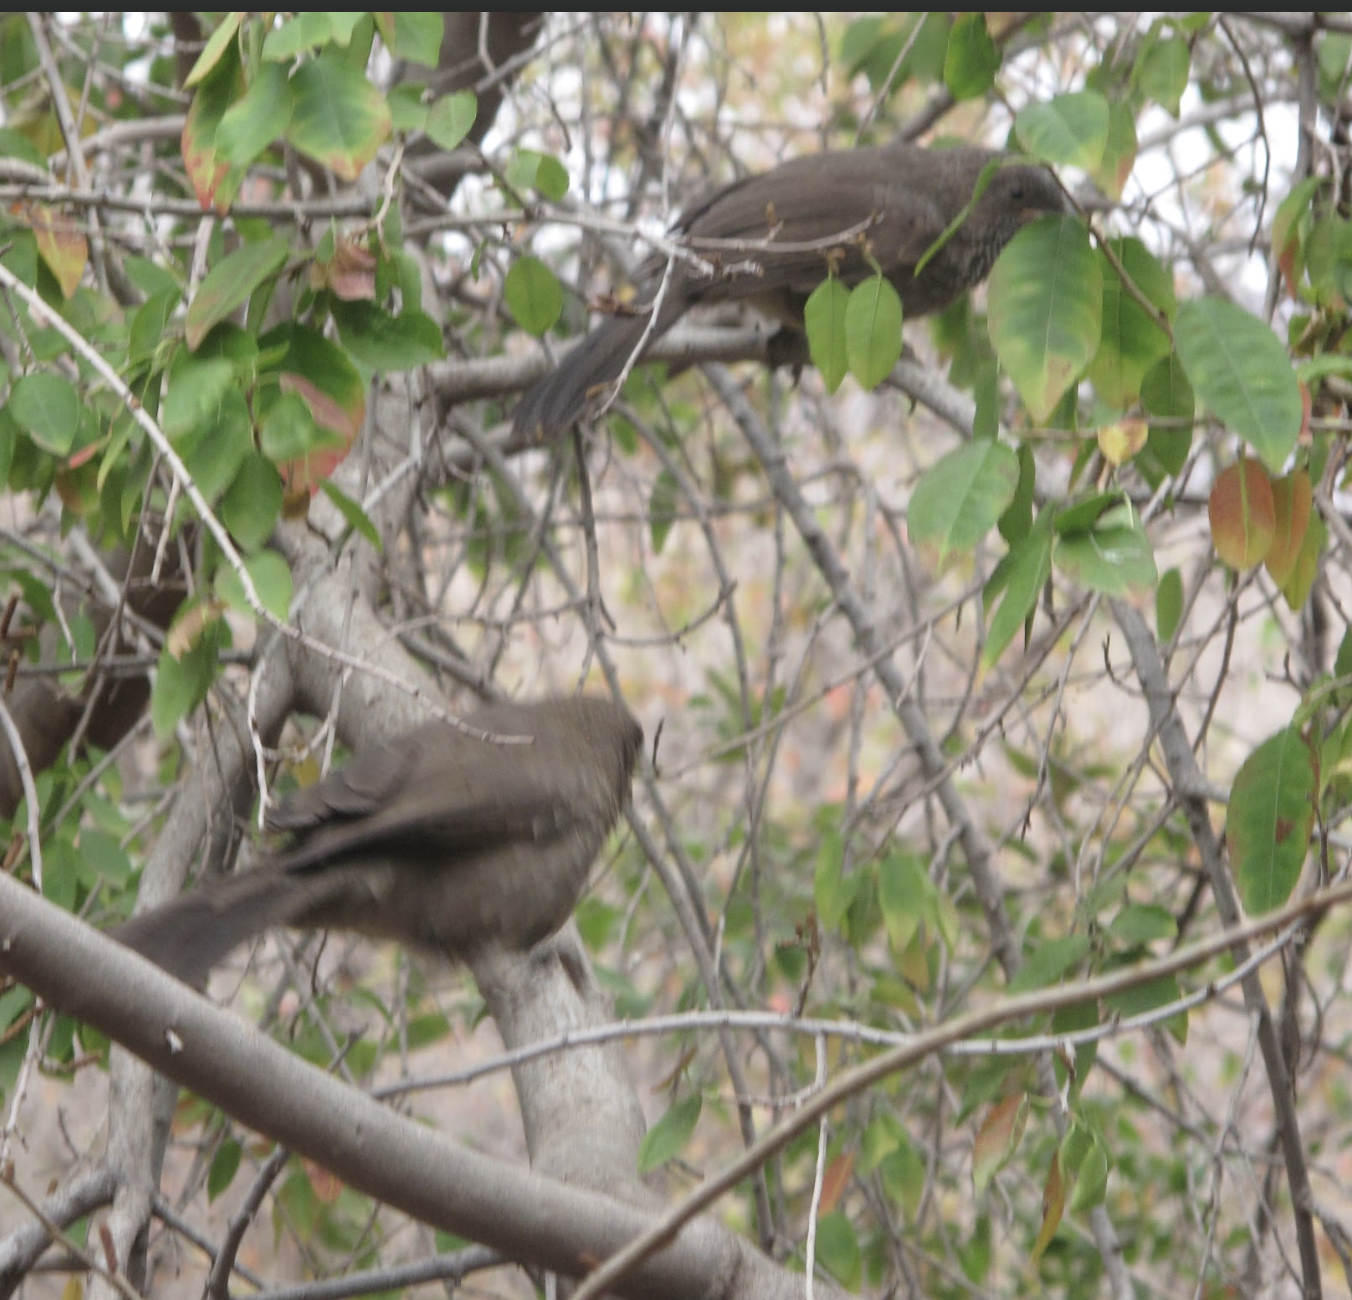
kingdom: Animalia
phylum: Chordata
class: Aves
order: Passeriformes
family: Leiothrichidae
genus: Turdoides
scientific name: Turdoides jardineii
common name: Arrow-marked babbler
